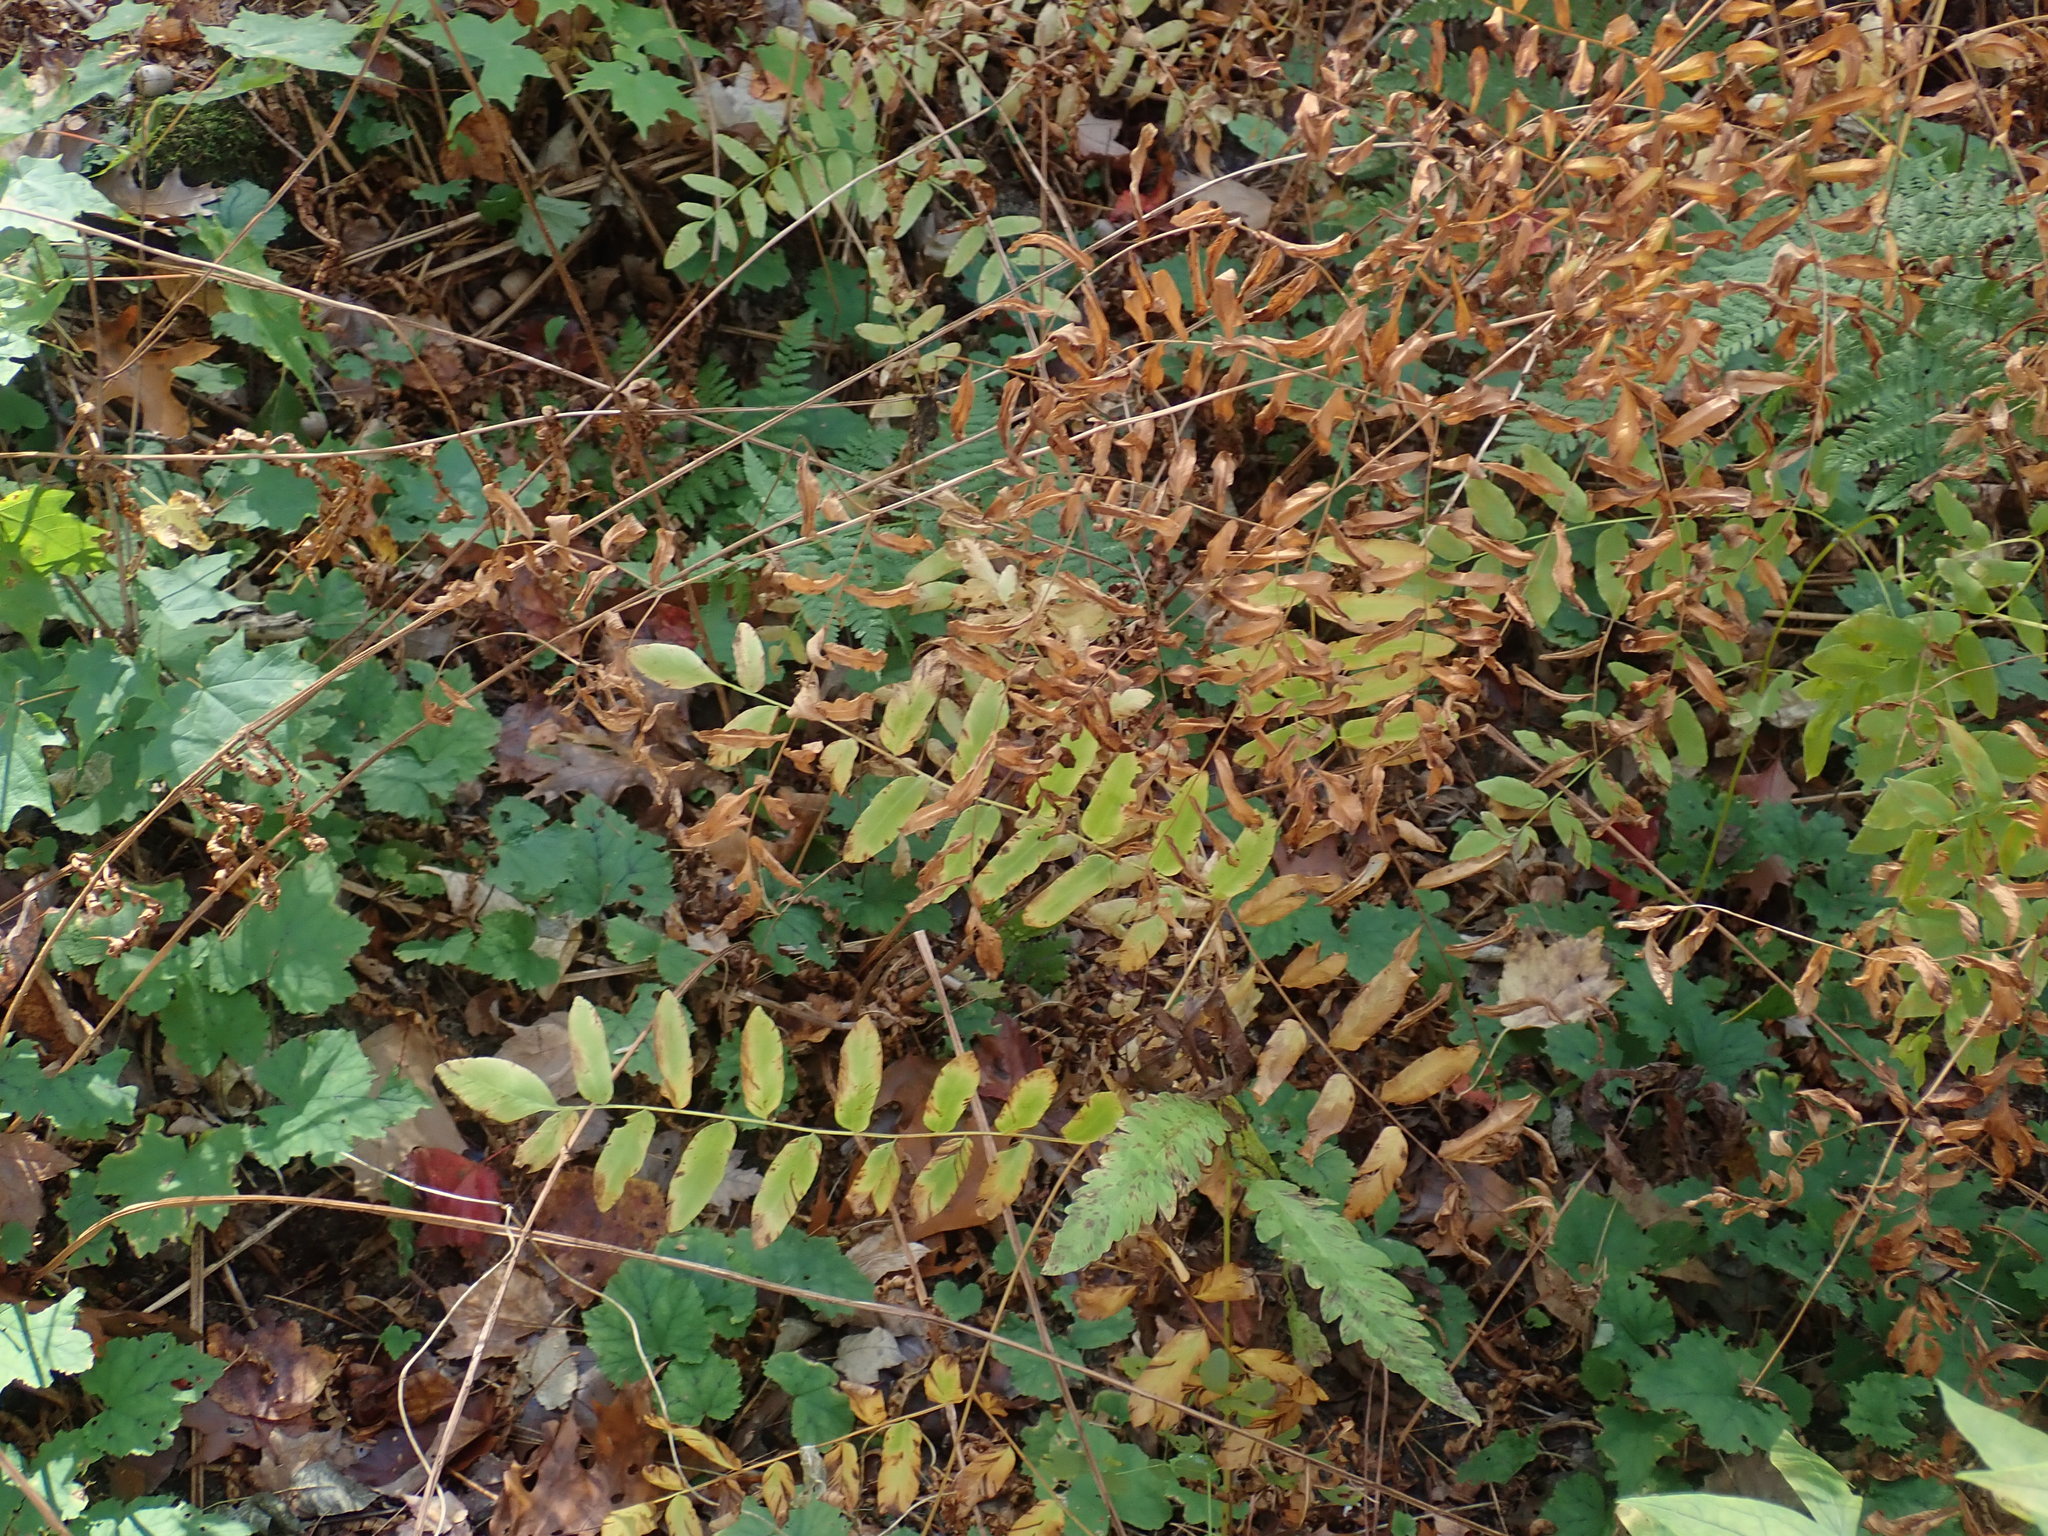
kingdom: Plantae
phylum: Tracheophyta
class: Polypodiopsida
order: Osmundales
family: Osmundaceae
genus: Osmunda
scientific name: Osmunda spectabilis
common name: American royal fern
